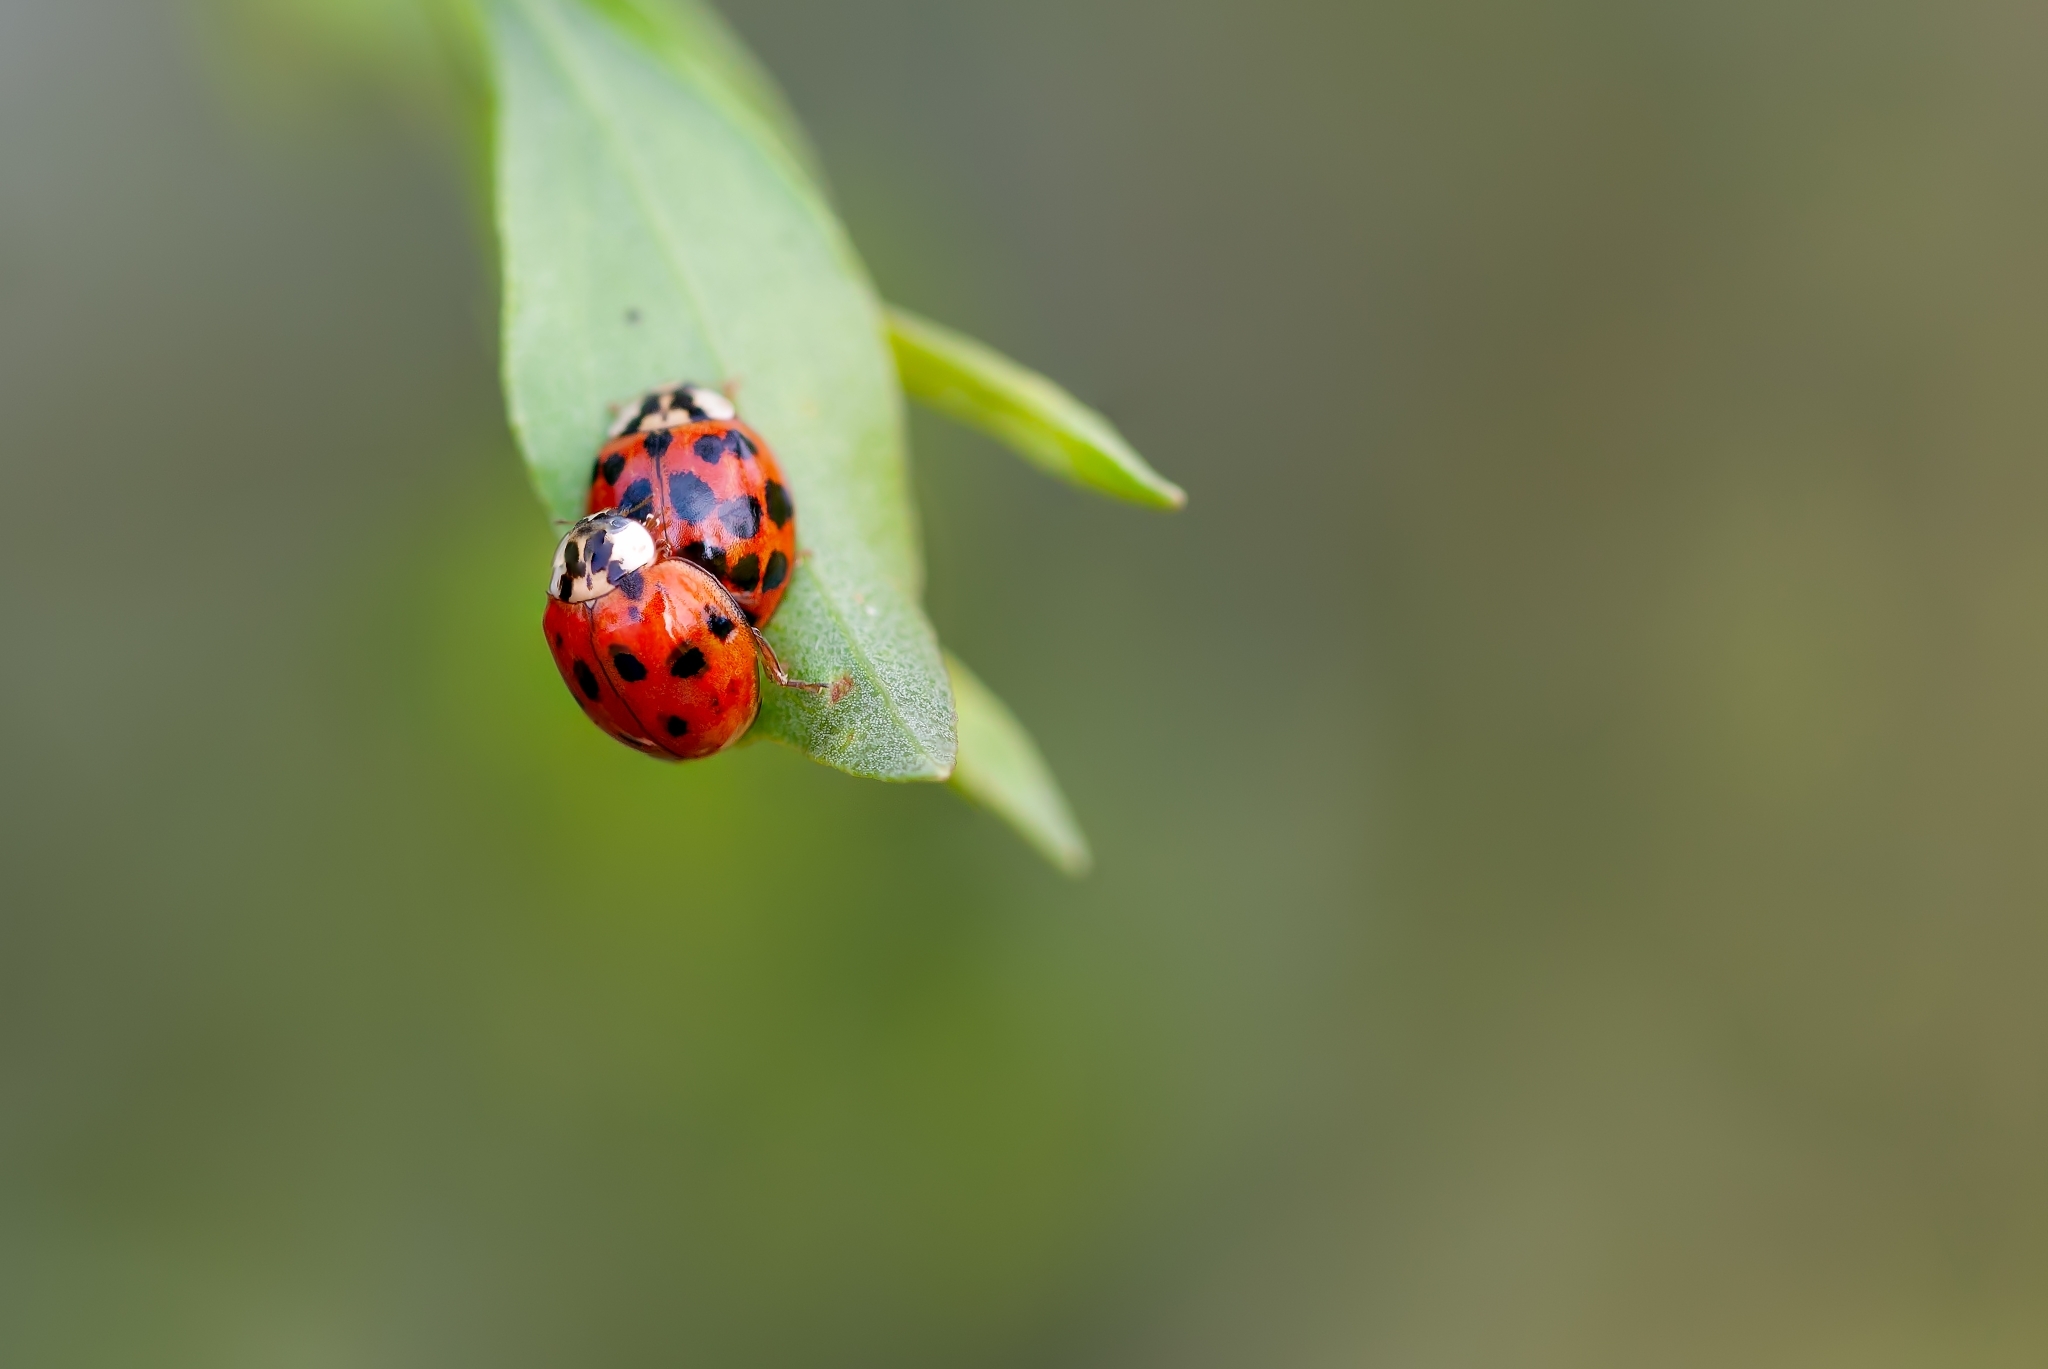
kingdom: Animalia
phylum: Arthropoda
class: Insecta
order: Coleoptera
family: Coccinellidae
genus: Harmonia
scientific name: Harmonia axyridis
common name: Harlequin ladybird
